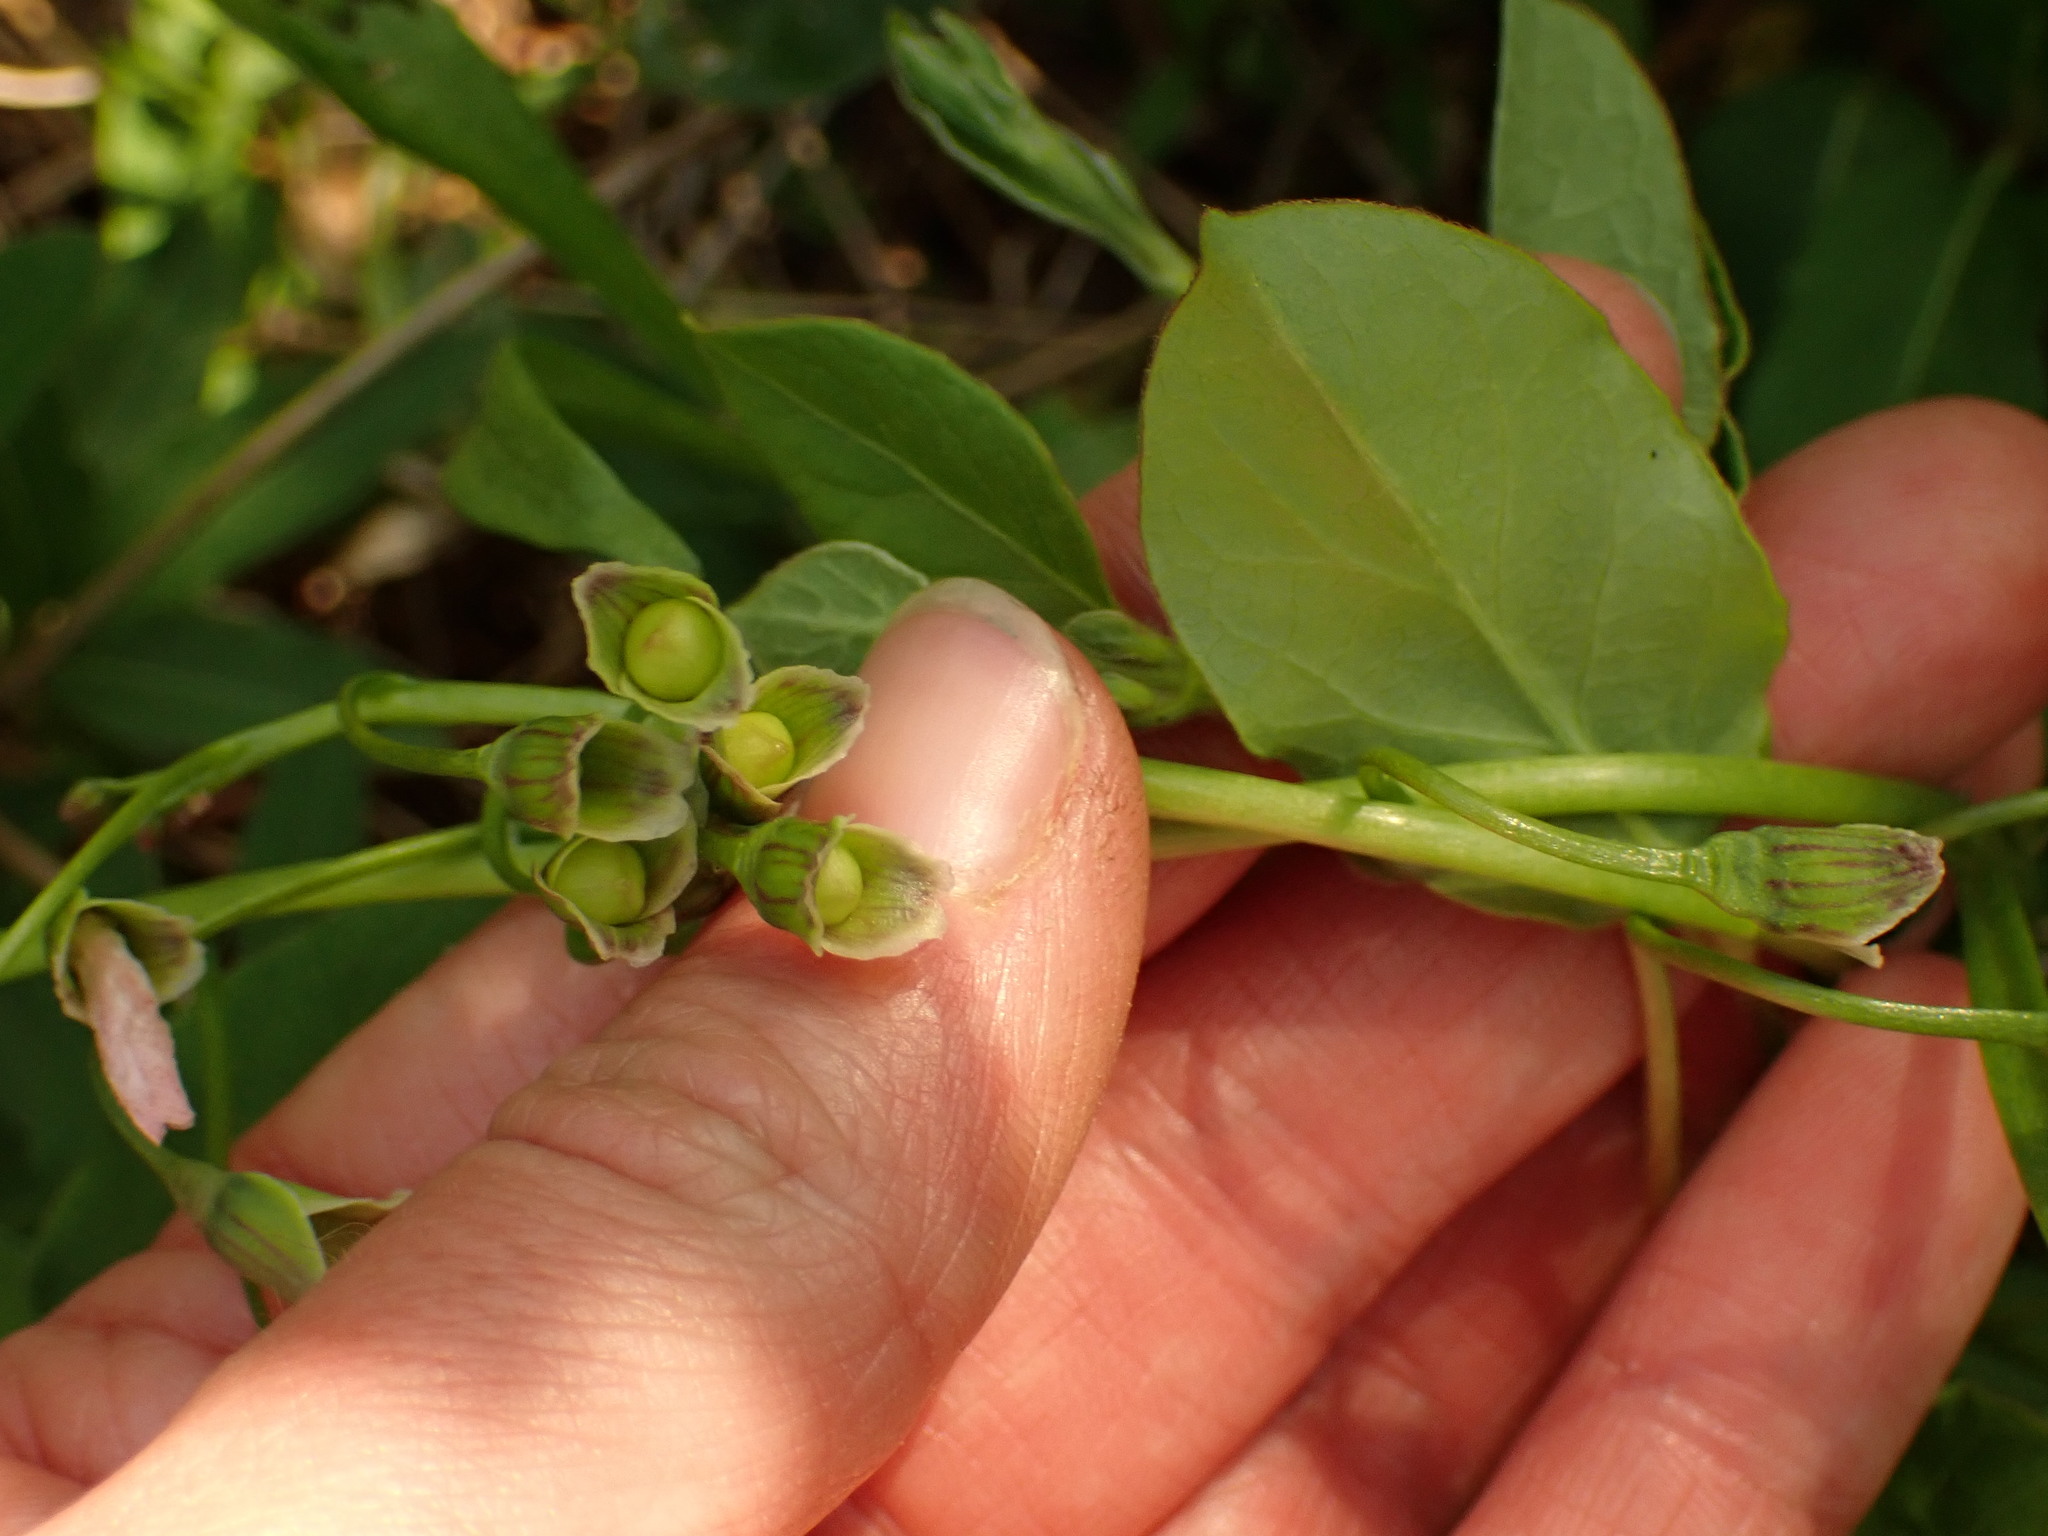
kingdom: Plantae
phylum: Tracheophyta
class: Magnoliopsida
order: Caryophyllales
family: Montiaceae
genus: Claytonia
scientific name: Claytonia virginica
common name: Virginia springbeauty
